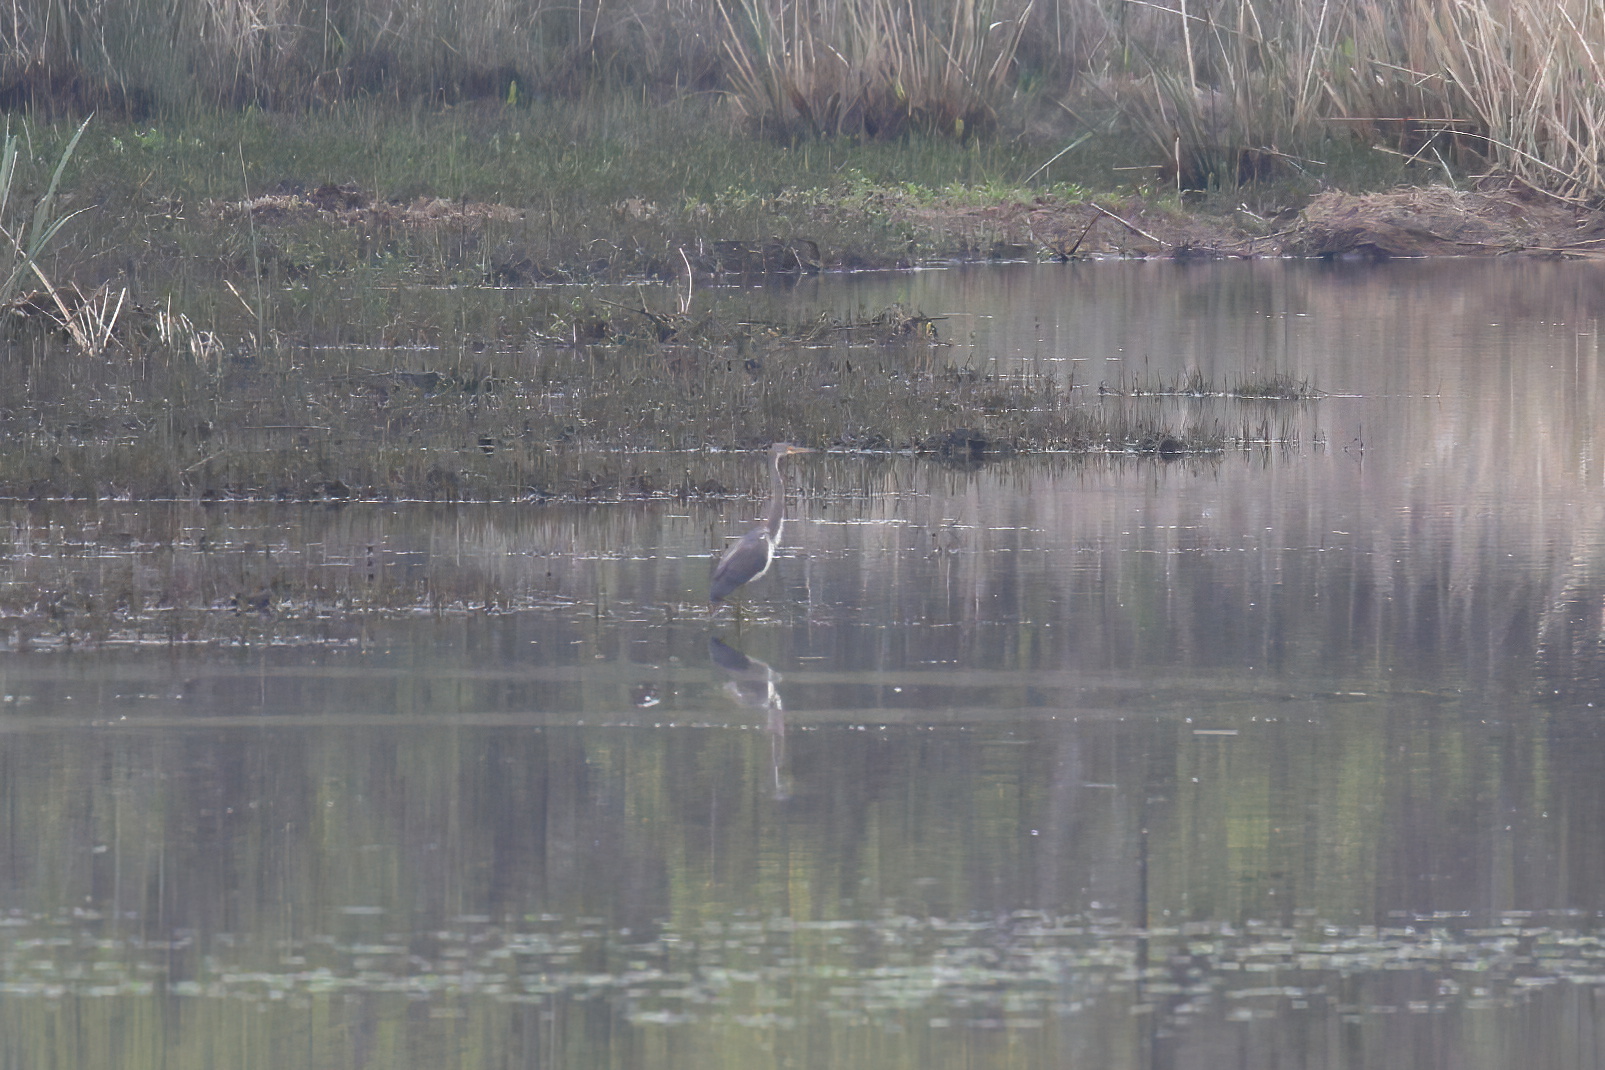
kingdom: Animalia
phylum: Chordata
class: Aves
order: Pelecaniformes
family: Ardeidae
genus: Egretta
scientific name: Egretta tricolor
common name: Tricolored heron
